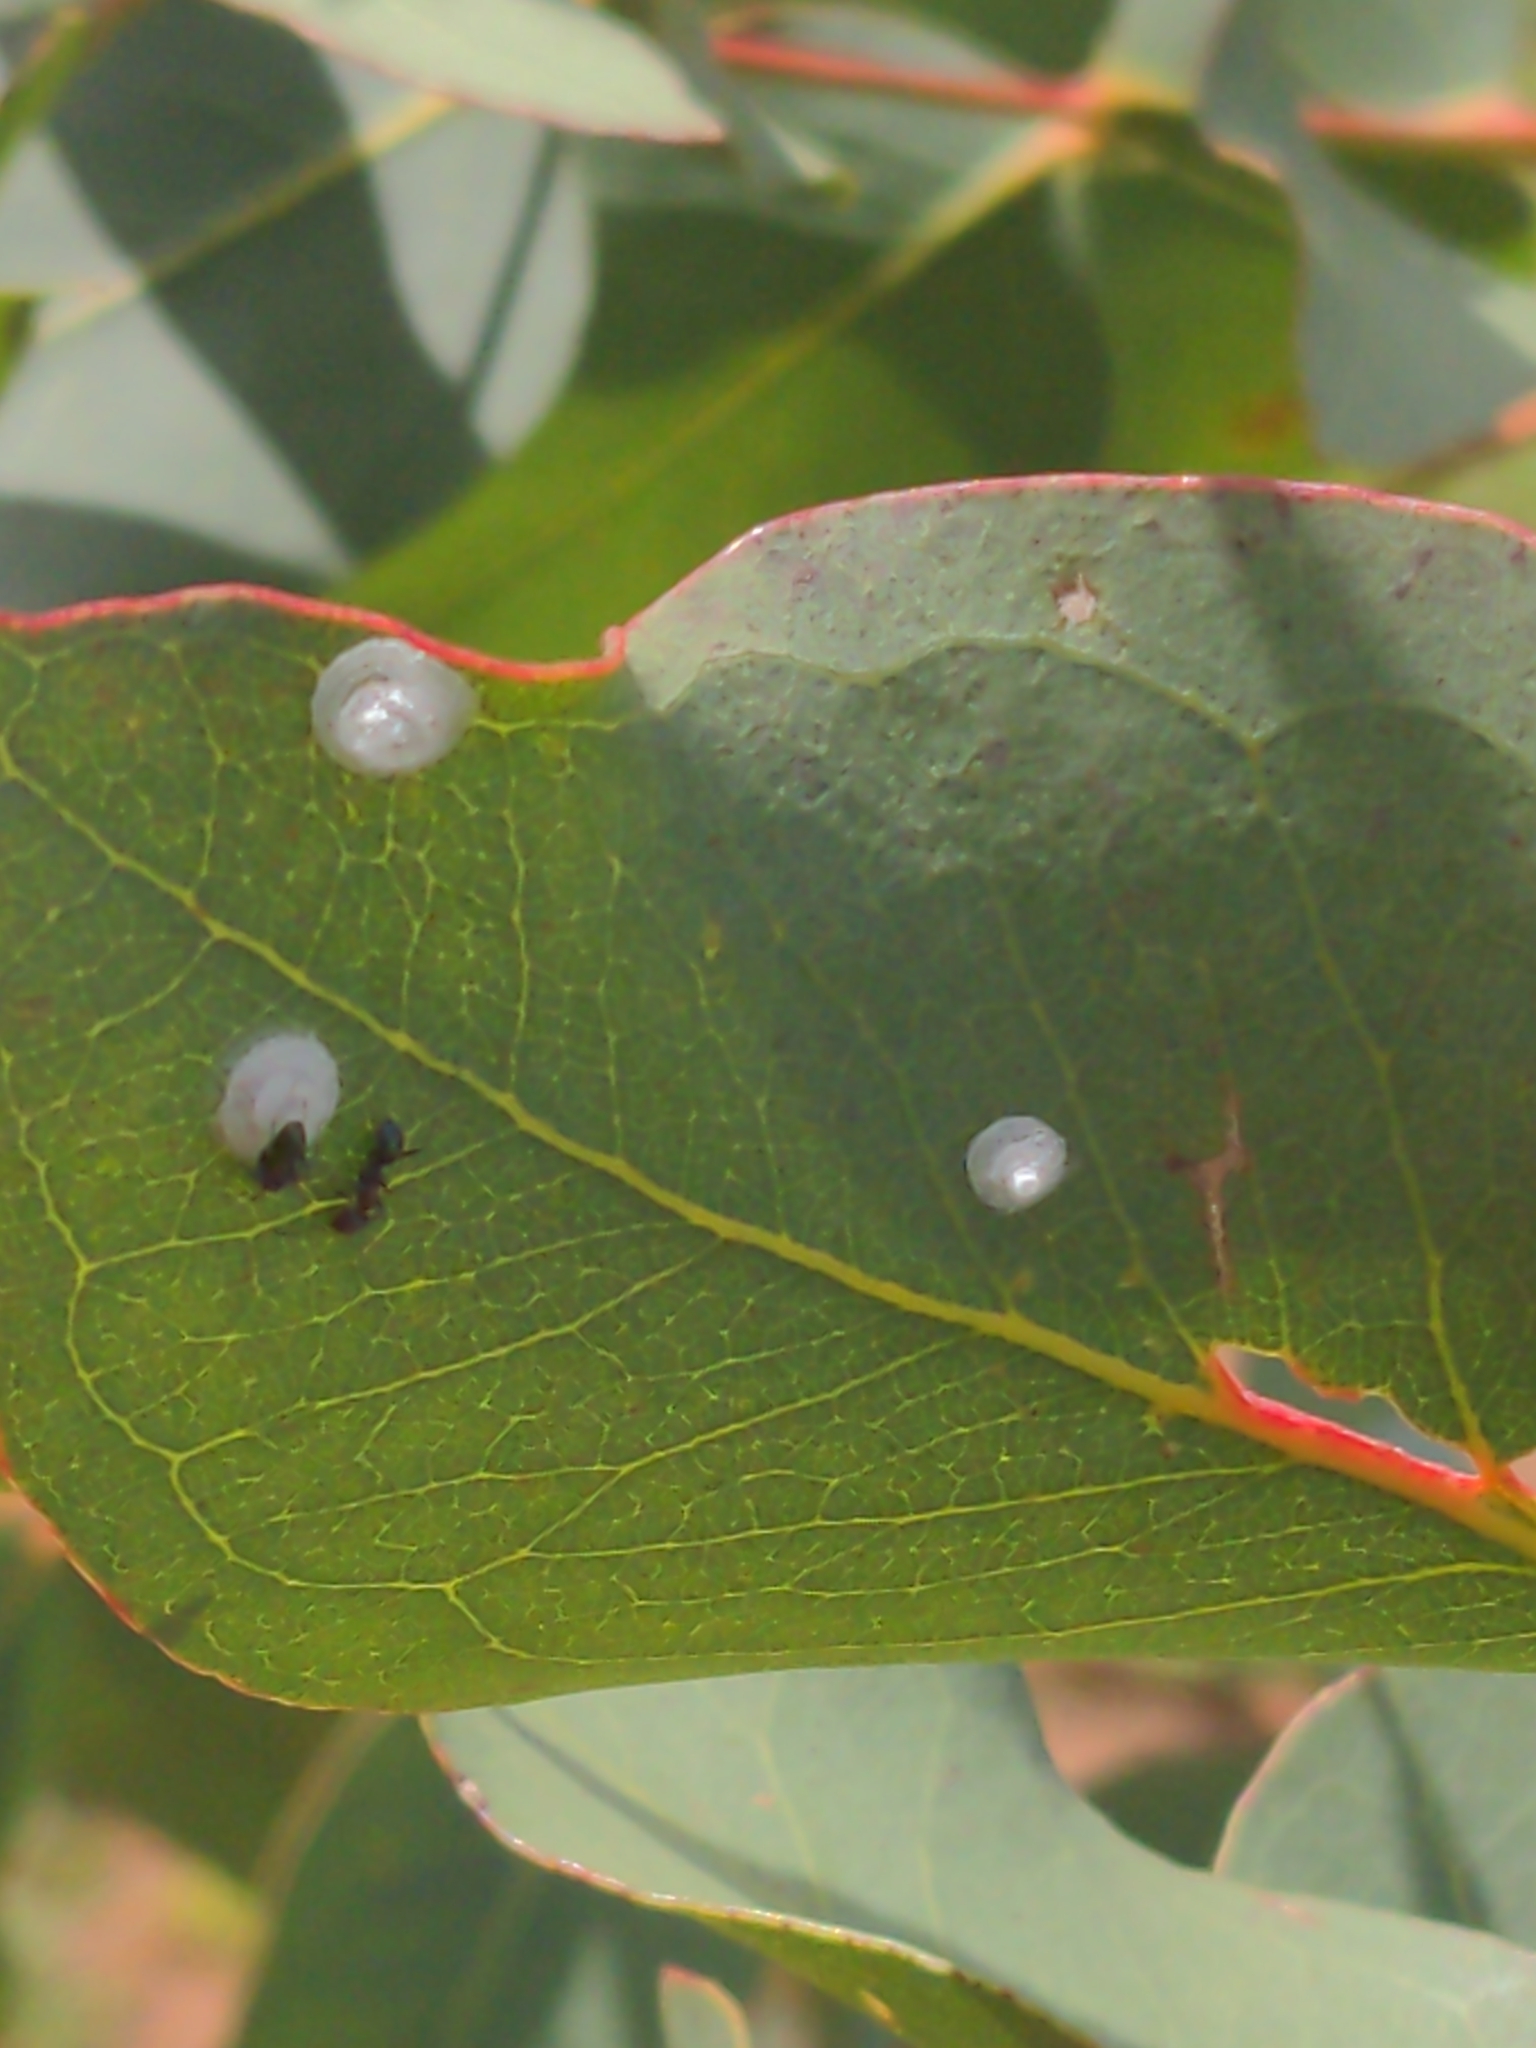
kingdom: Animalia
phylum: Arthropoda
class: Insecta
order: Hymenoptera
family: Formicidae
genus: Iridomyrmex
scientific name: Iridomyrmex purpureus
